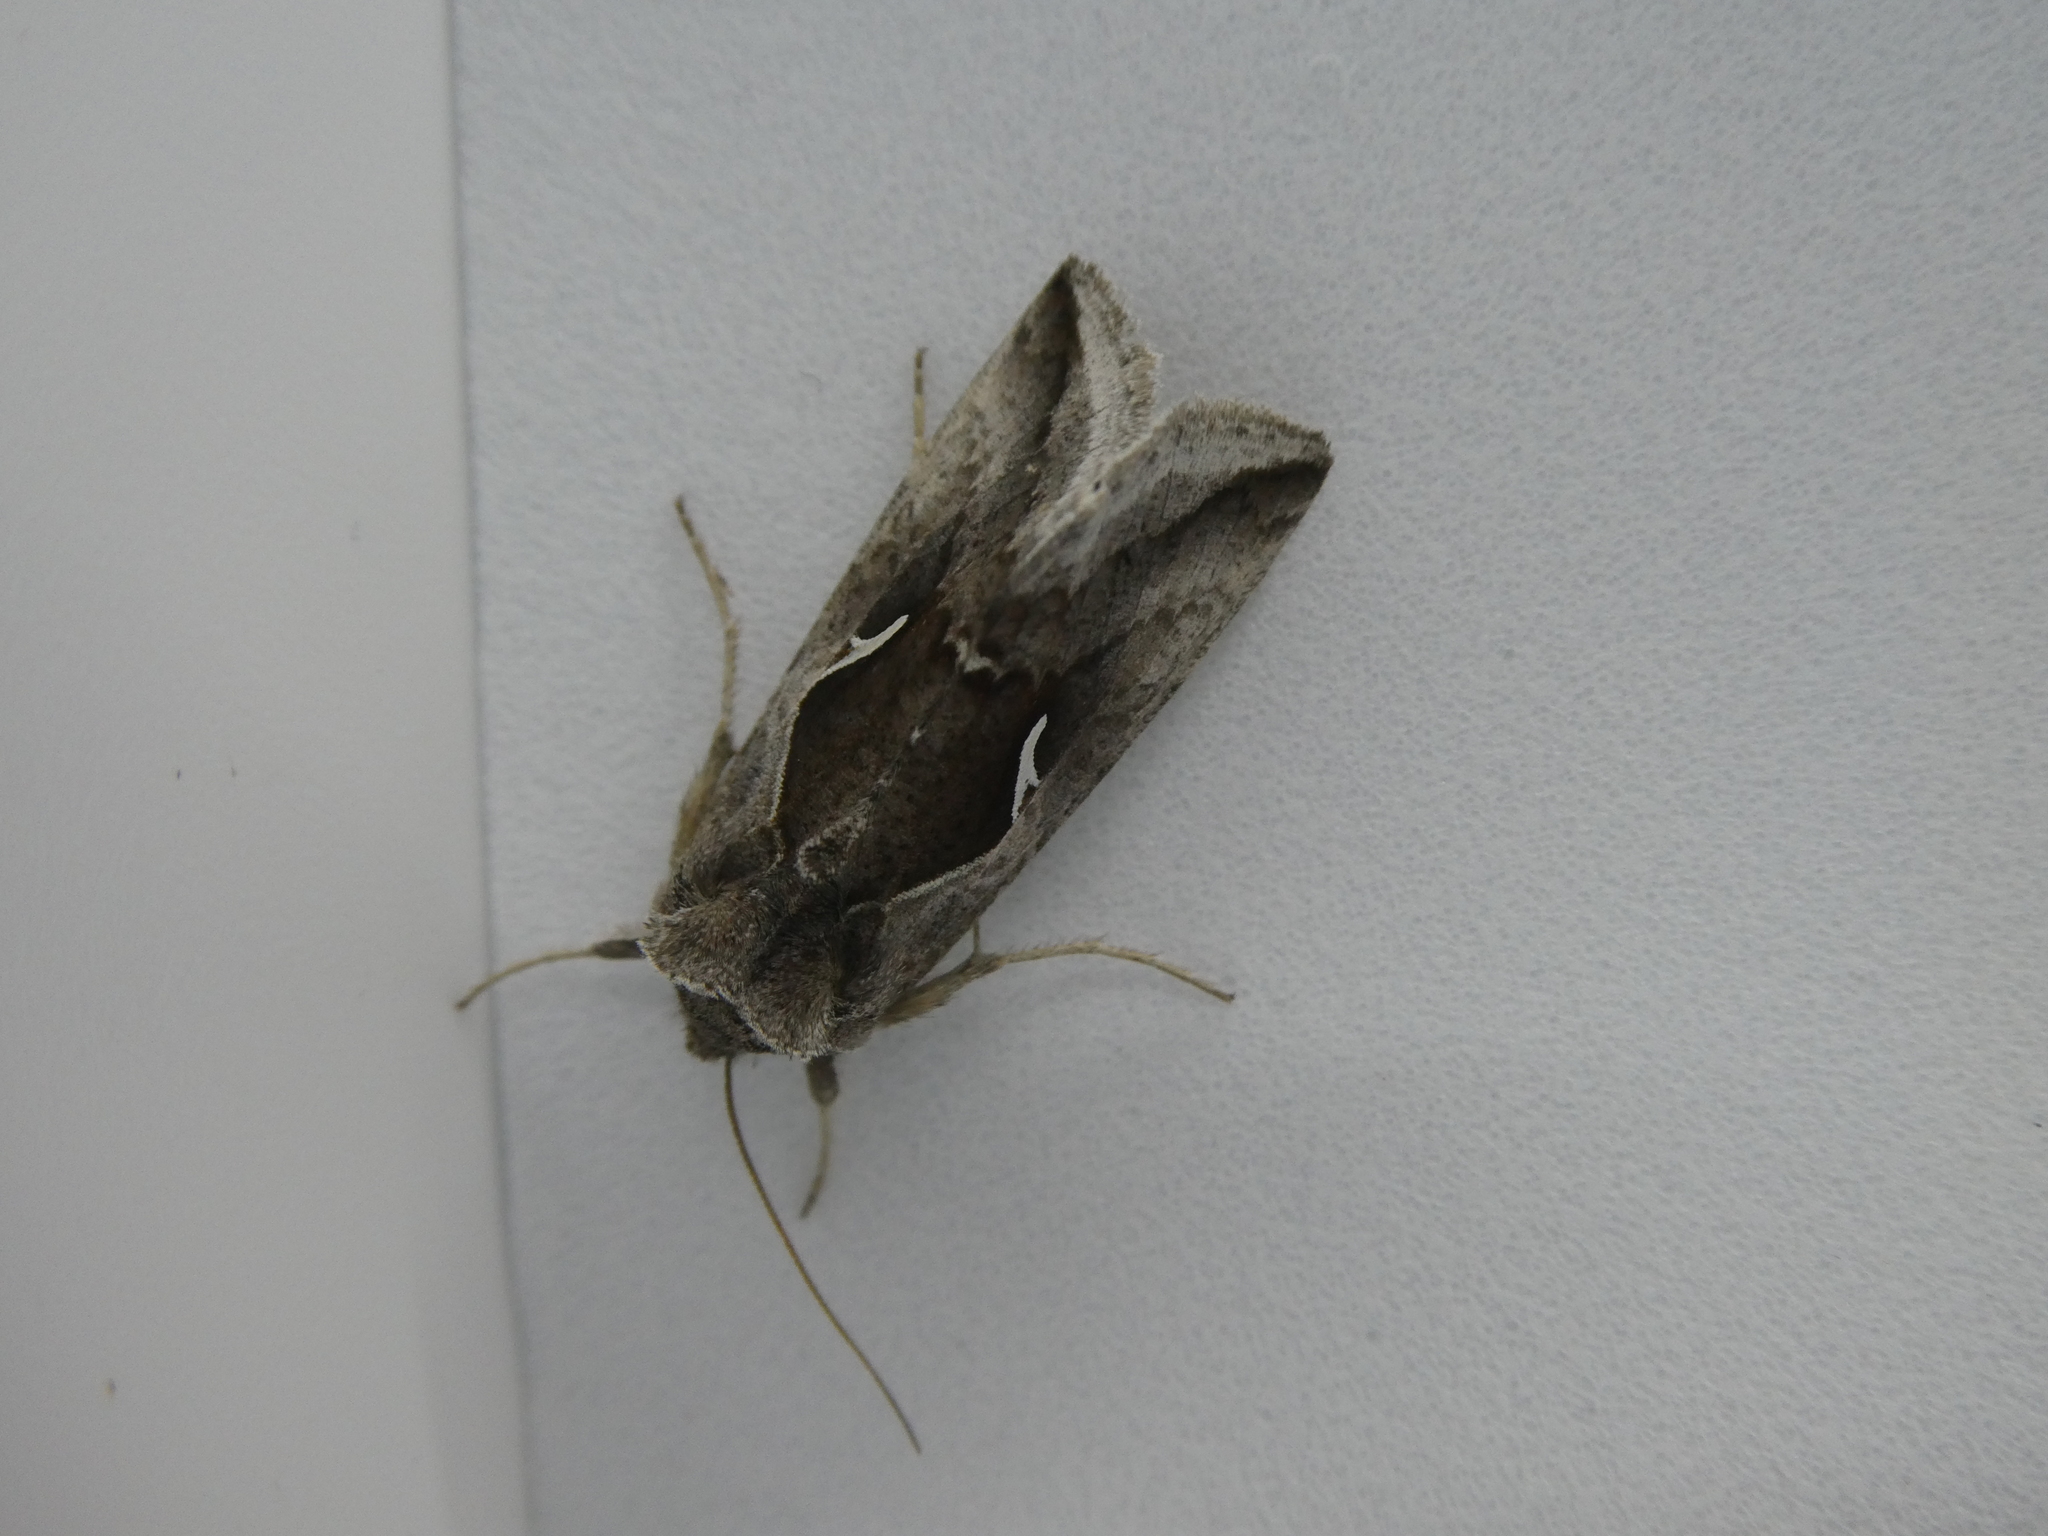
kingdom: Animalia
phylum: Arthropoda
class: Insecta
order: Lepidoptera
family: Noctuidae
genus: Anagrapha
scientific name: Anagrapha falcifera
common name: Celery looper
